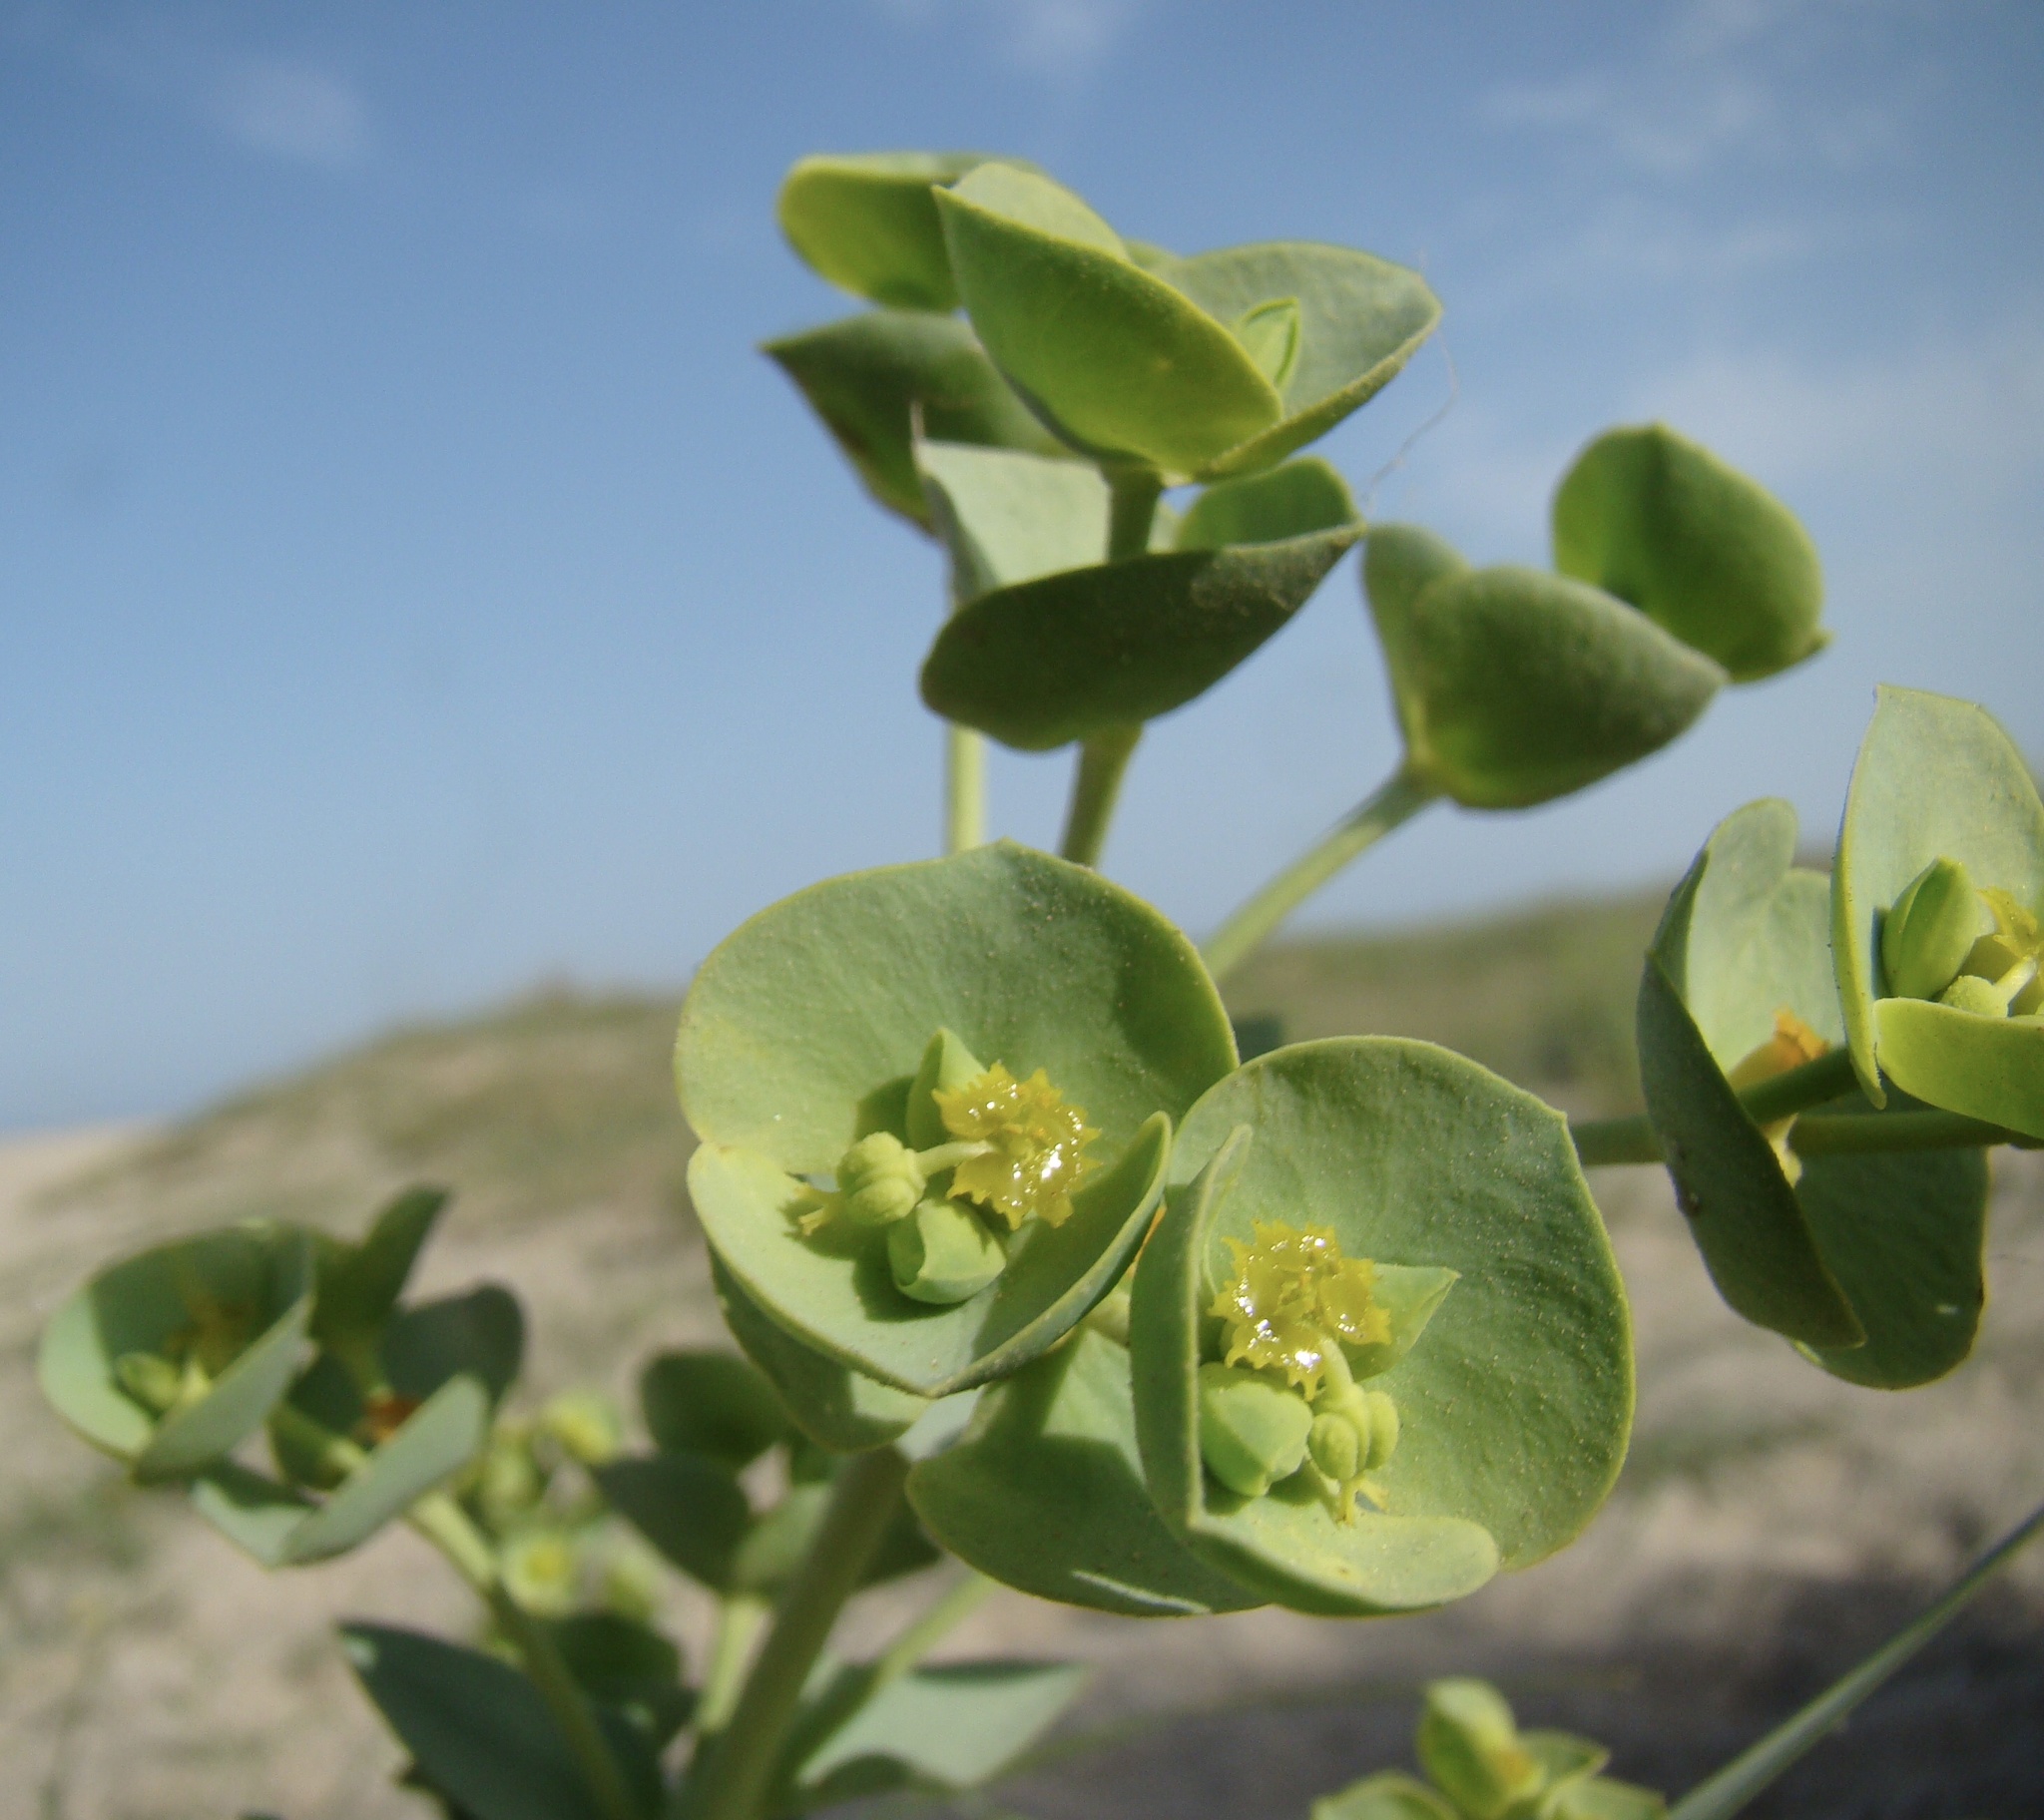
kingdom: Plantae
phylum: Tracheophyta
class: Magnoliopsida
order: Malpighiales
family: Euphorbiaceae
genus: Euphorbia
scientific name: Euphorbia paralias
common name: Sea spurge
